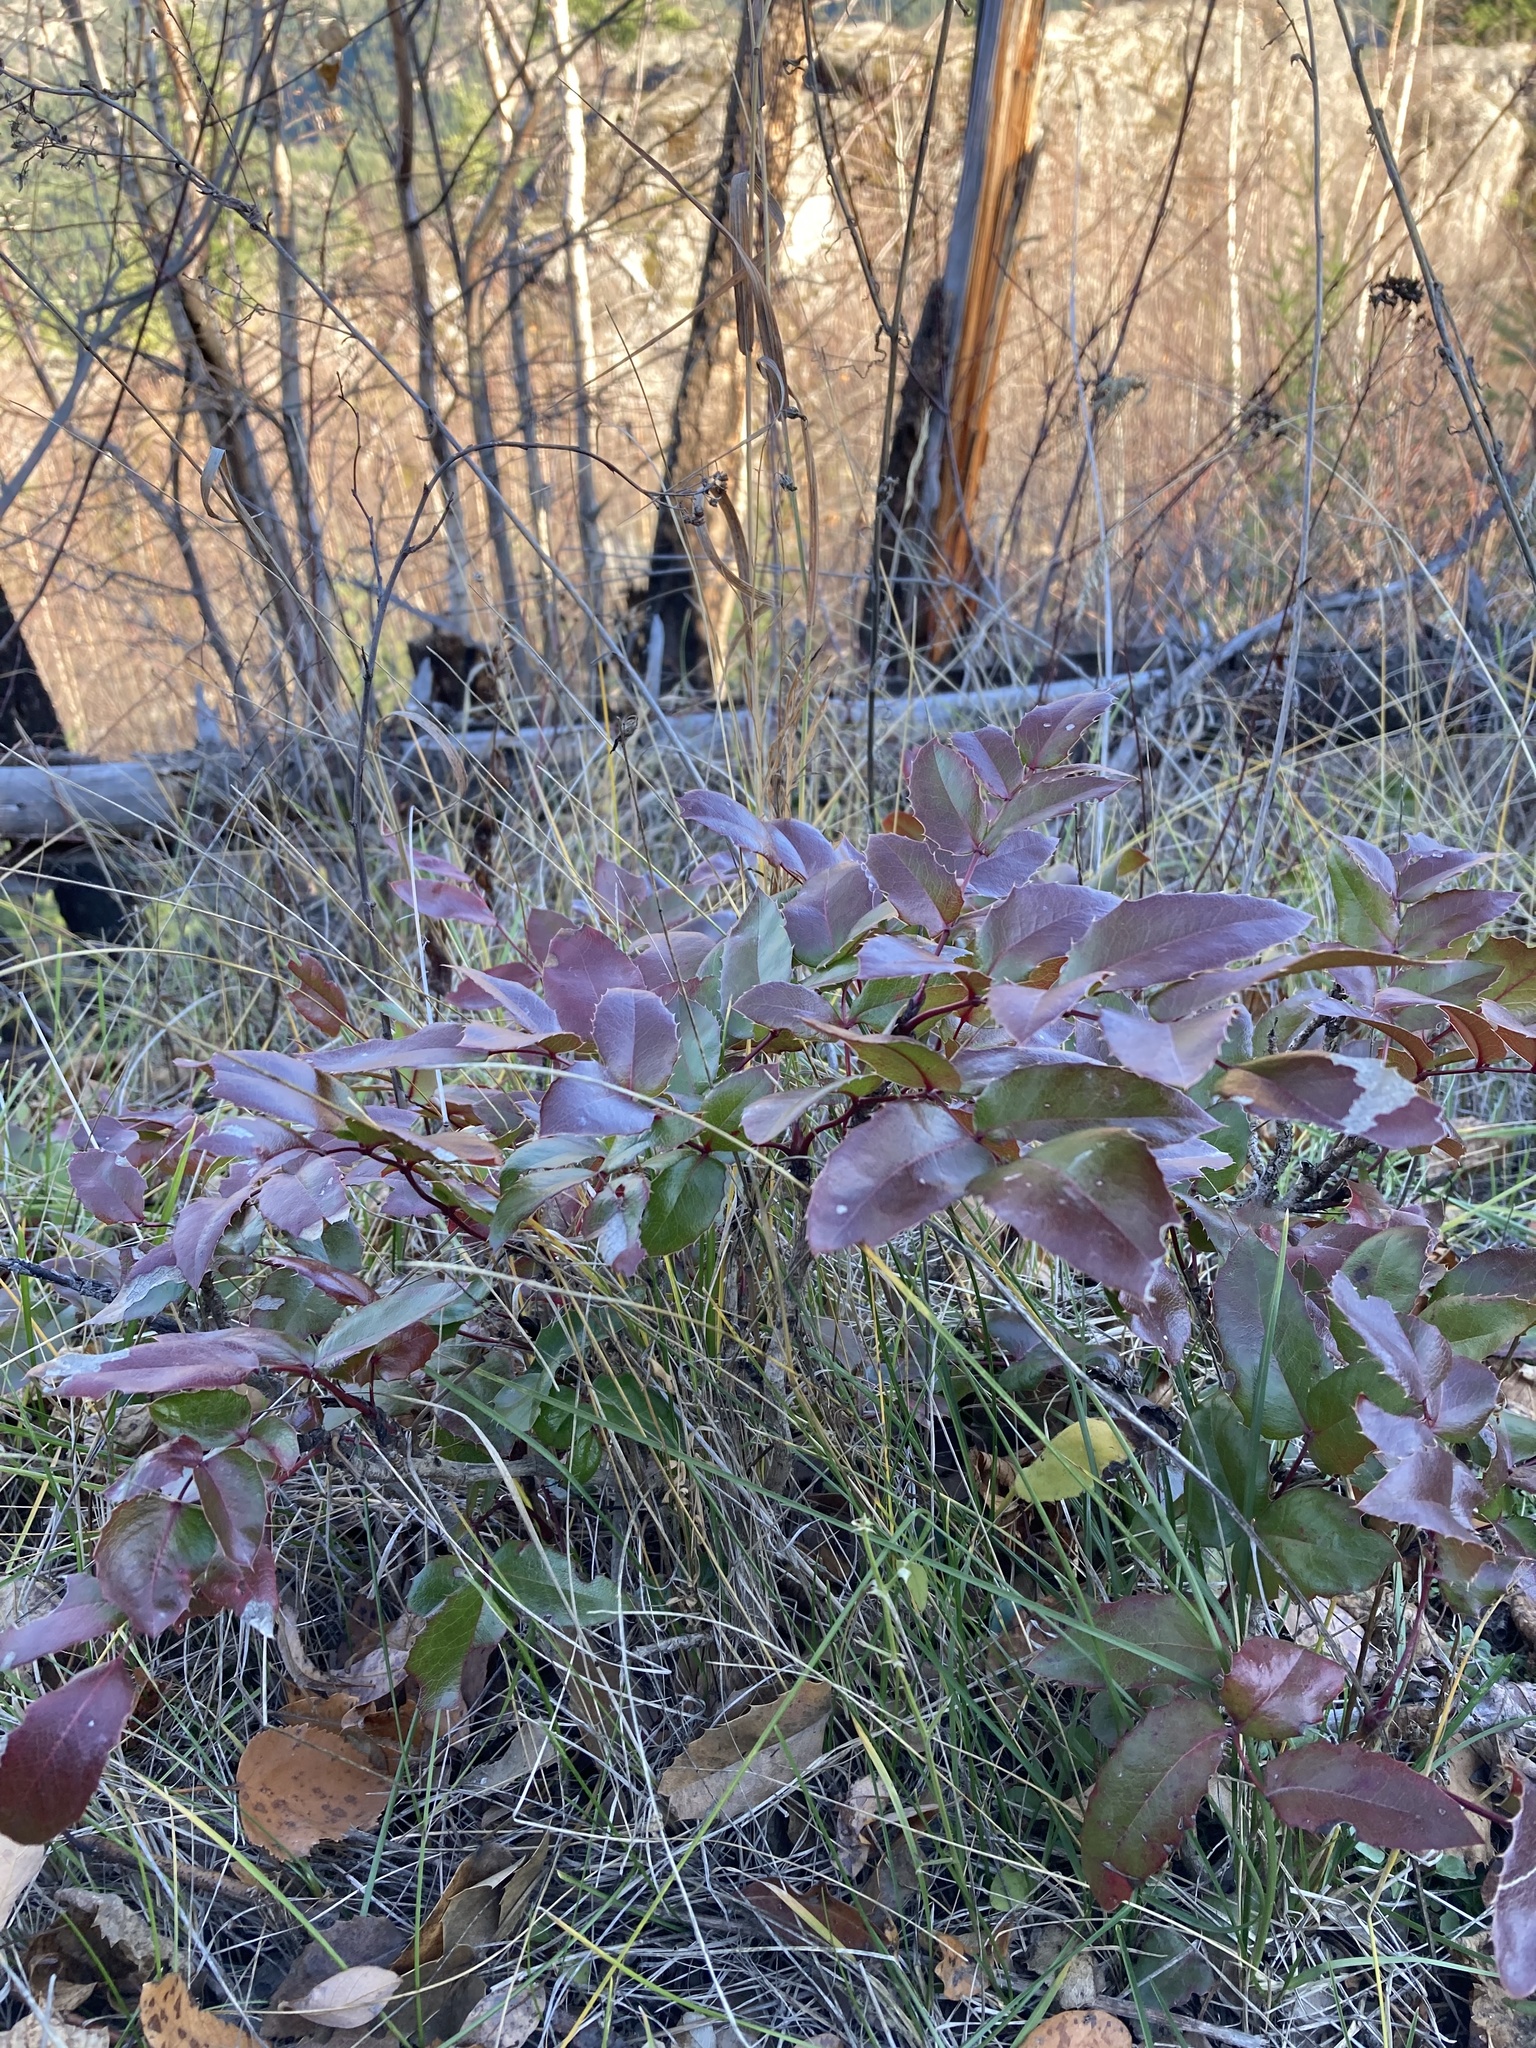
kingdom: Plantae
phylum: Tracheophyta
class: Magnoliopsida
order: Ranunculales
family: Berberidaceae
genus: Mahonia
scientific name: Mahonia aquifolium
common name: Oregon-grape
